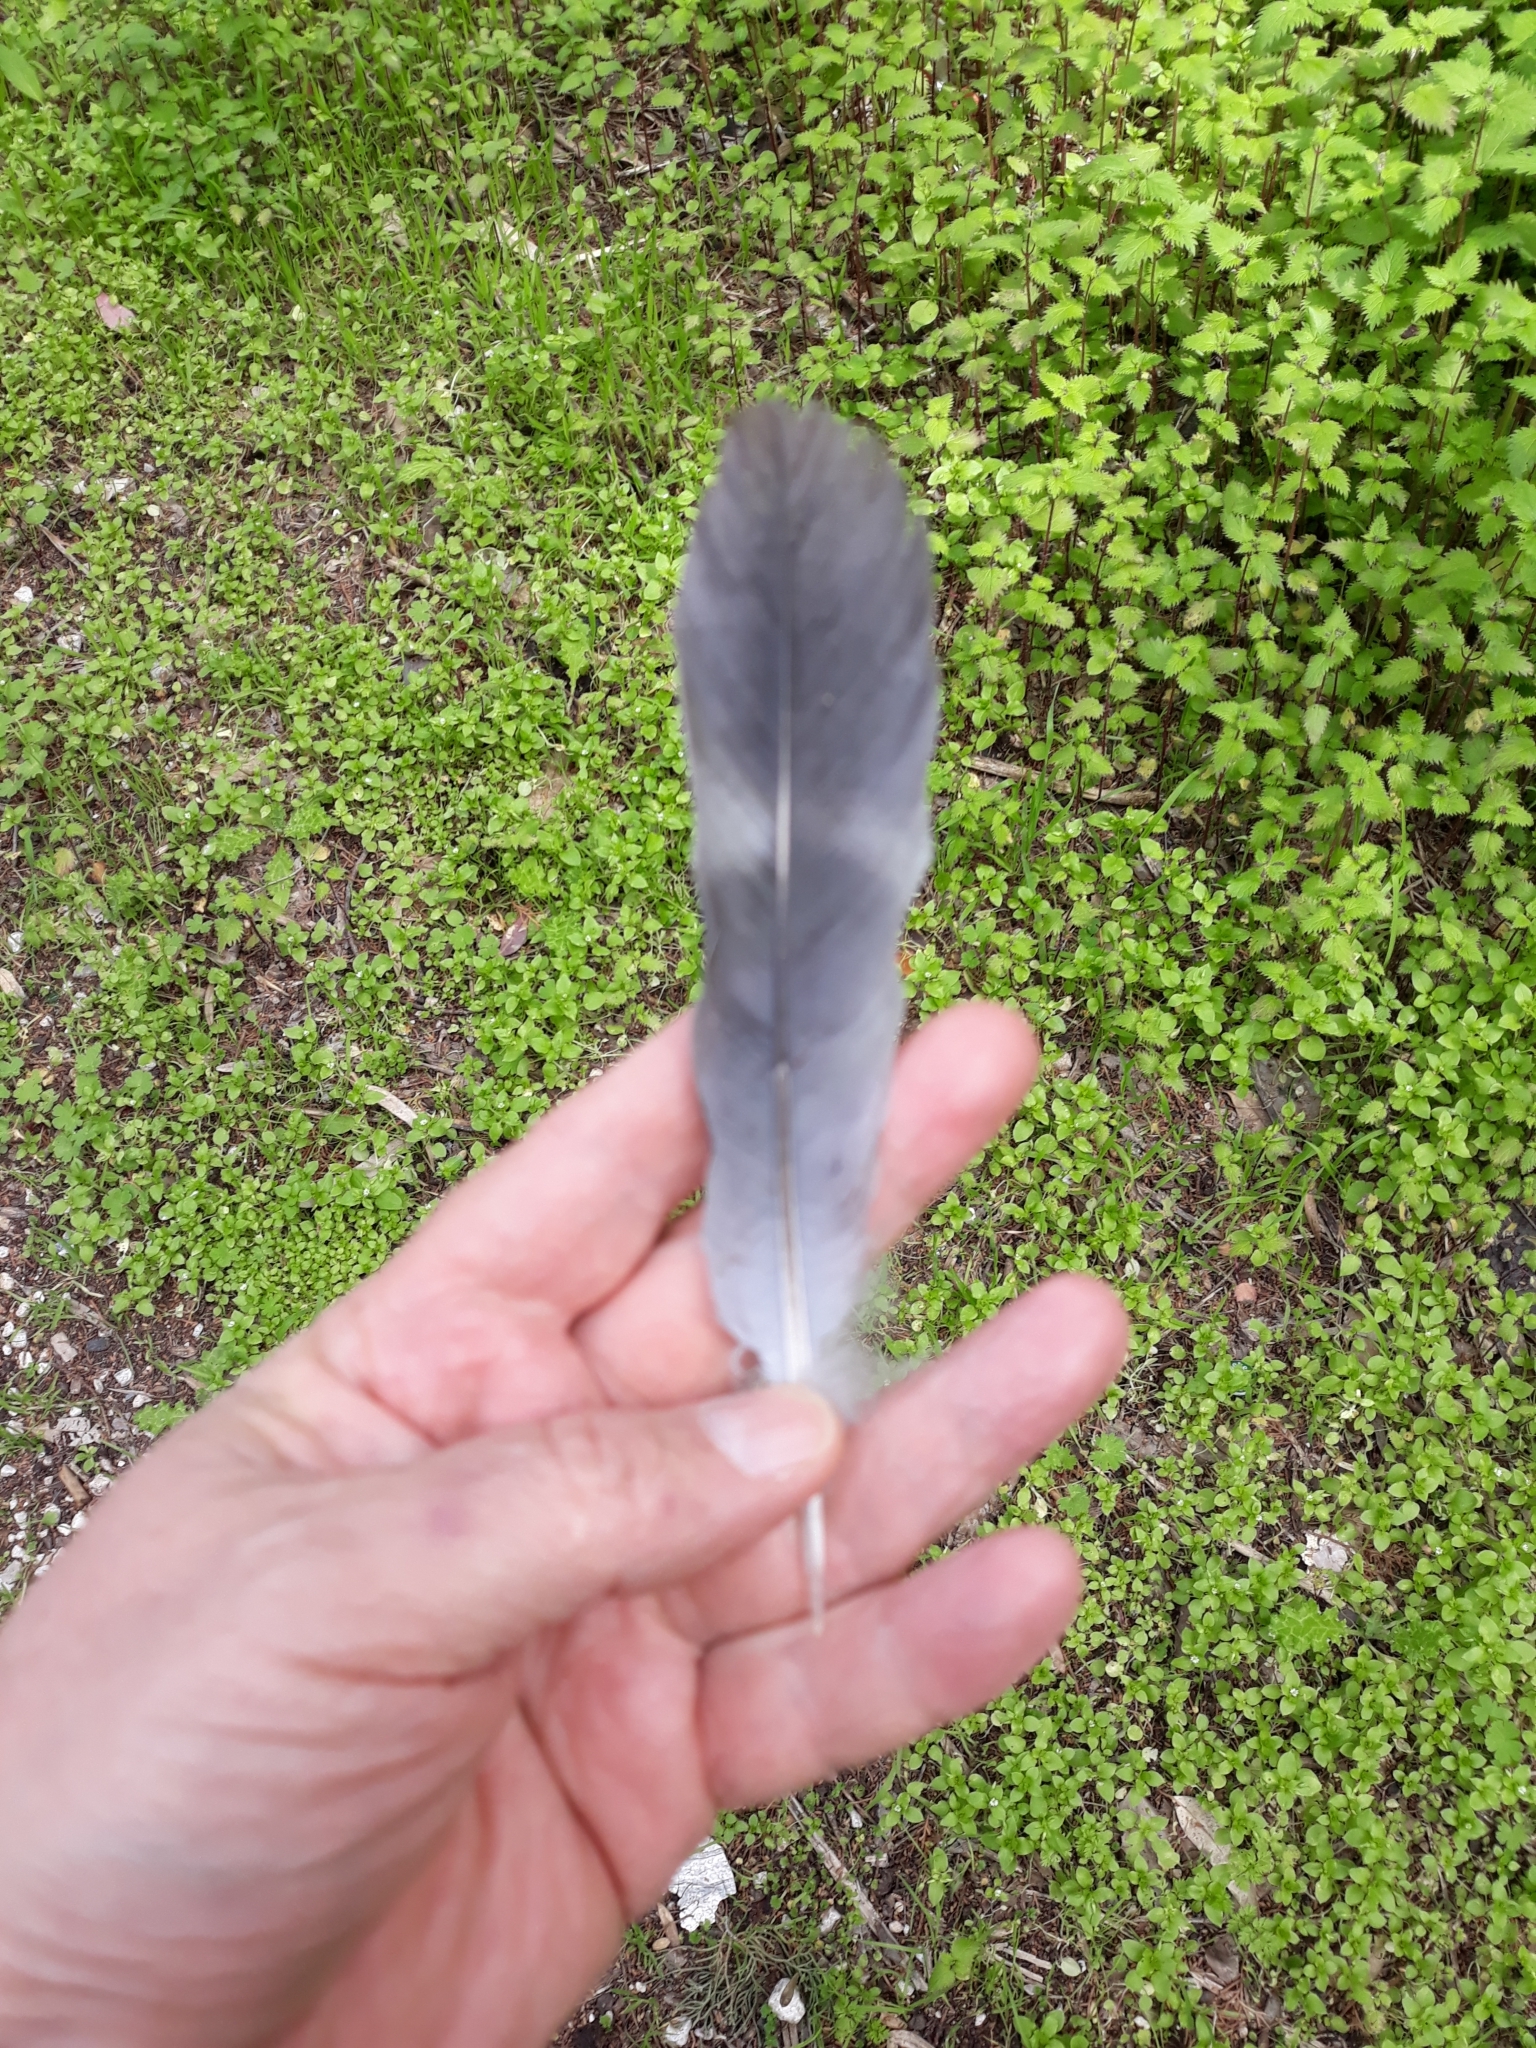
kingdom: Animalia
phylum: Chordata
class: Aves
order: Columbiformes
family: Columbidae
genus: Columba
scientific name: Columba palumbus
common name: Common wood pigeon
